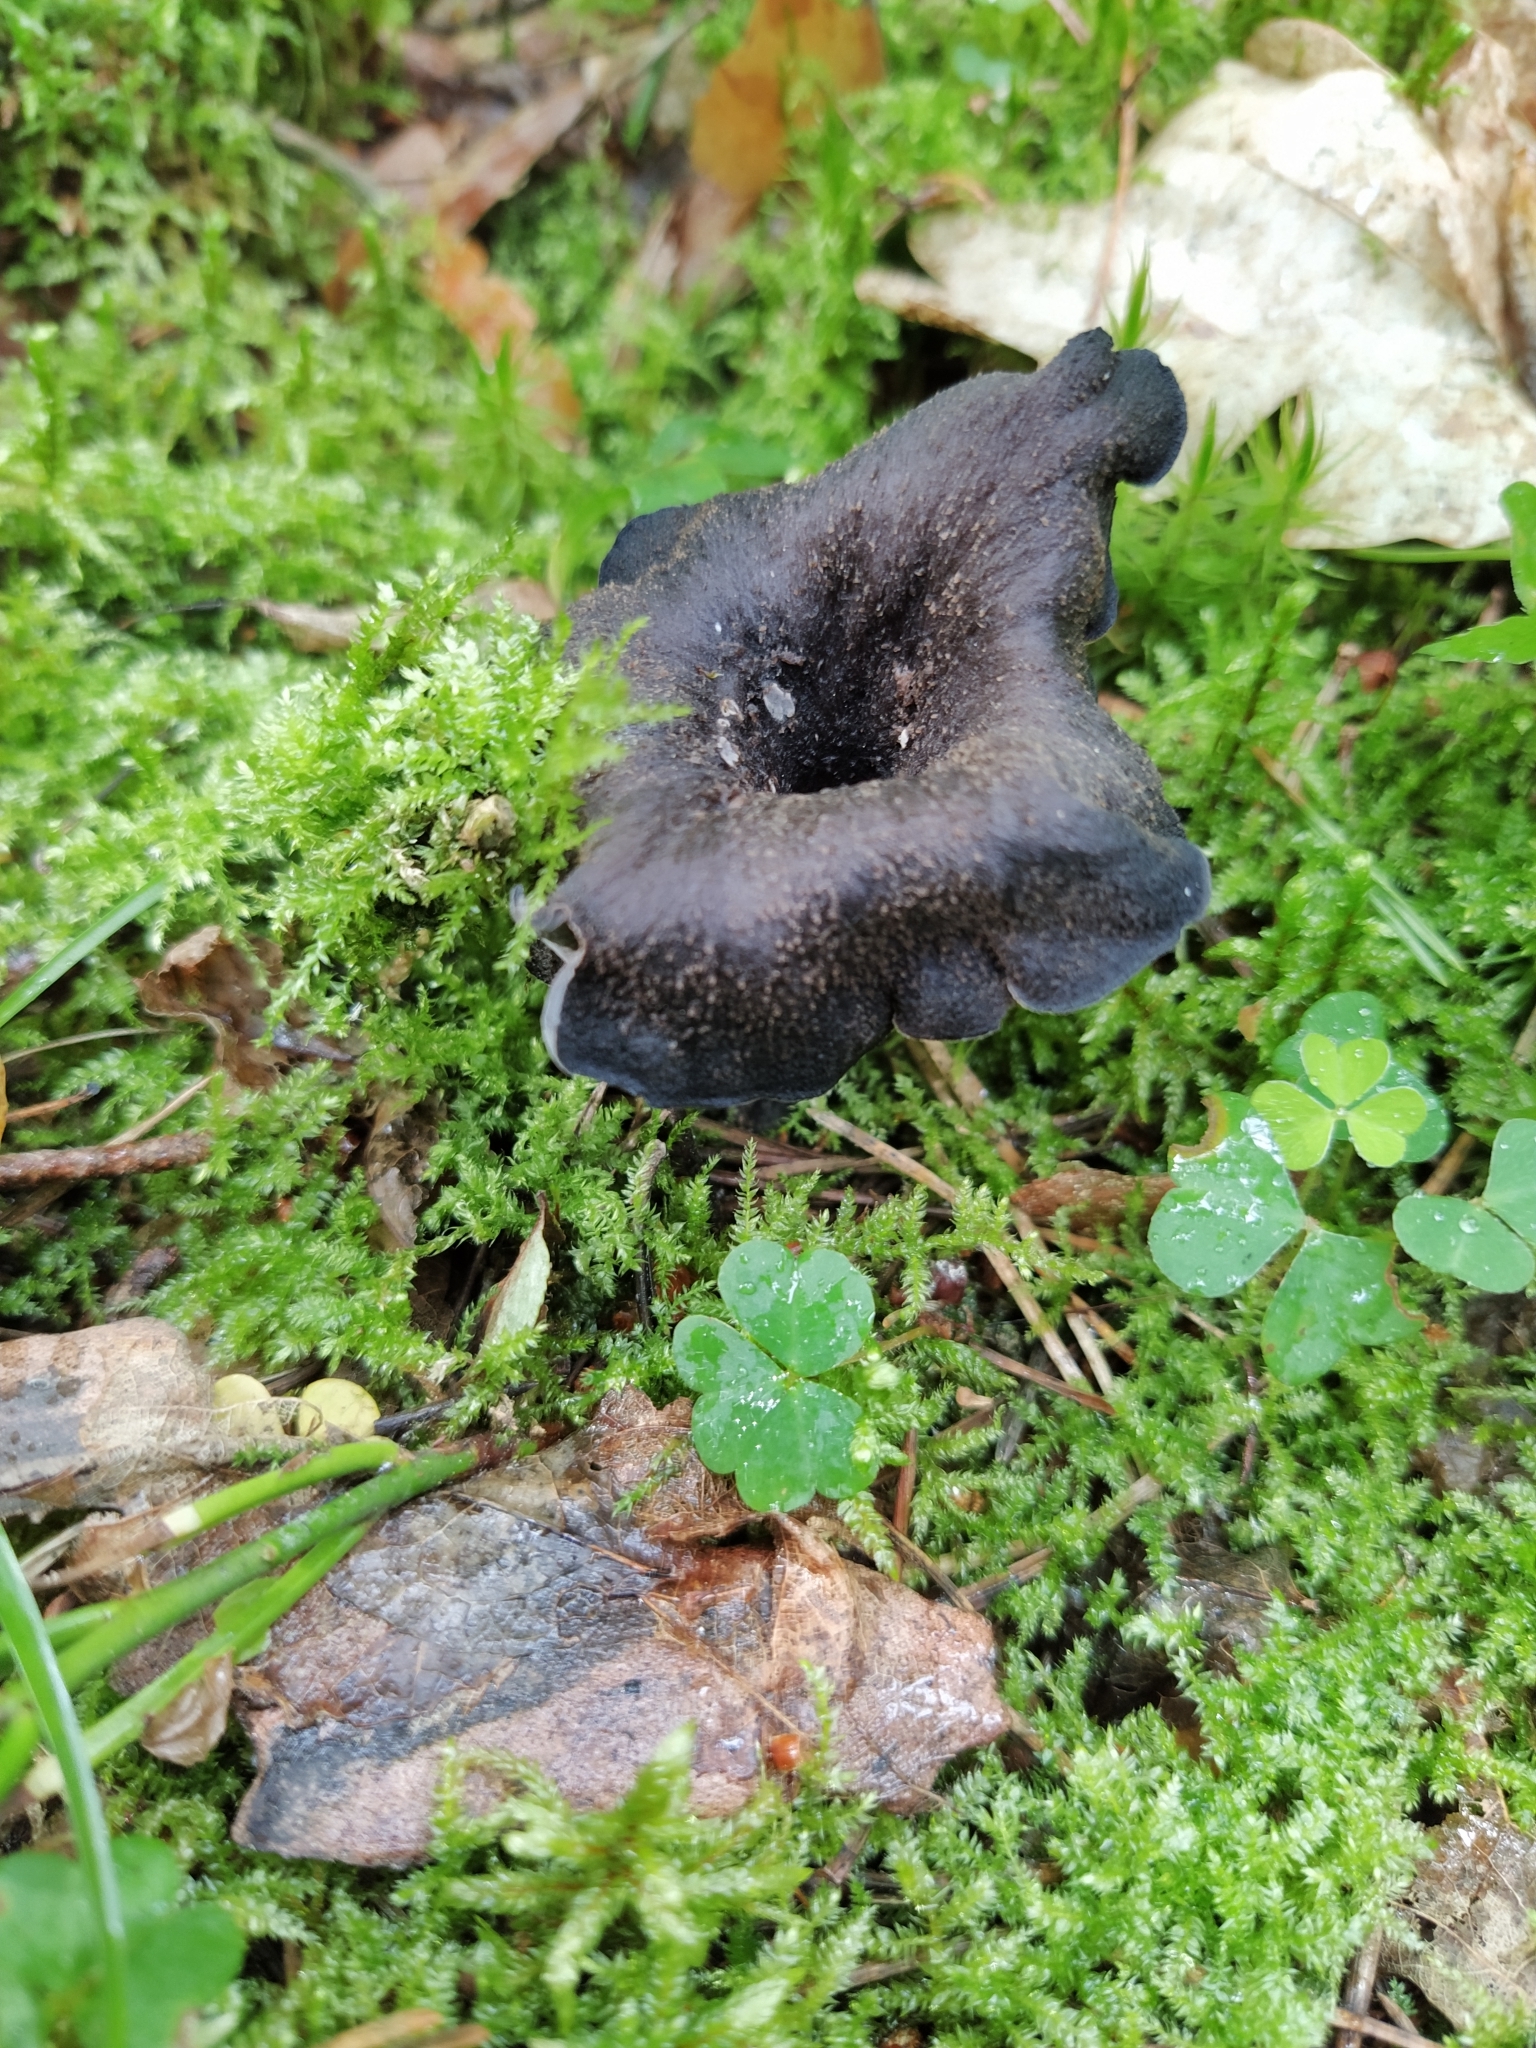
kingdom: Fungi
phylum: Basidiomycota
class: Agaricomycetes
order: Cantharellales
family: Hydnaceae
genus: Craterellus
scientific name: Craterellus cornucopioides
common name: Horn of plenty
